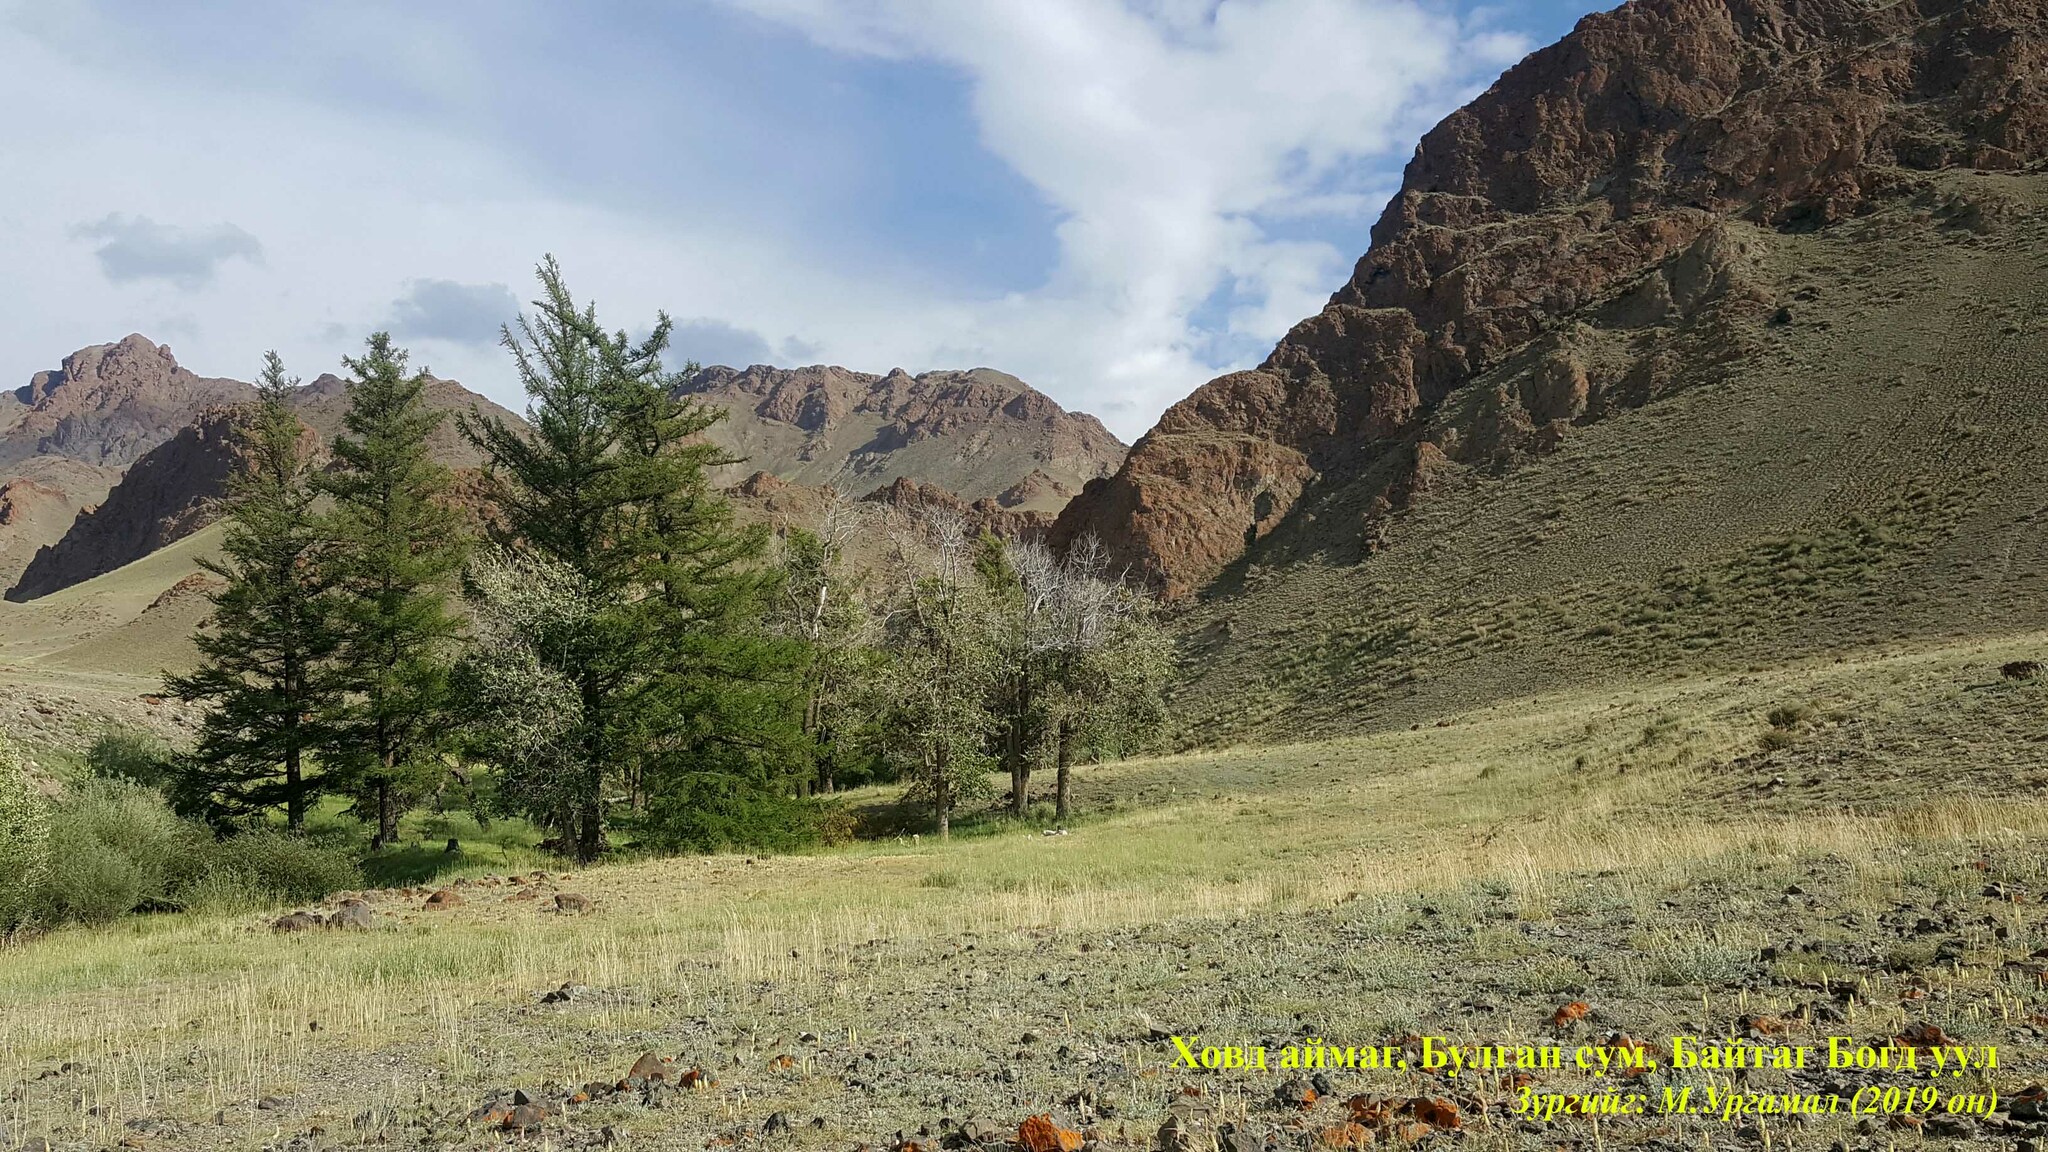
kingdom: Plantae
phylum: Tracheophyta
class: Pinopsida
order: Pinales
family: Pinaceae
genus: Larix
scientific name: Larix sibirica
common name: Siberian larch
